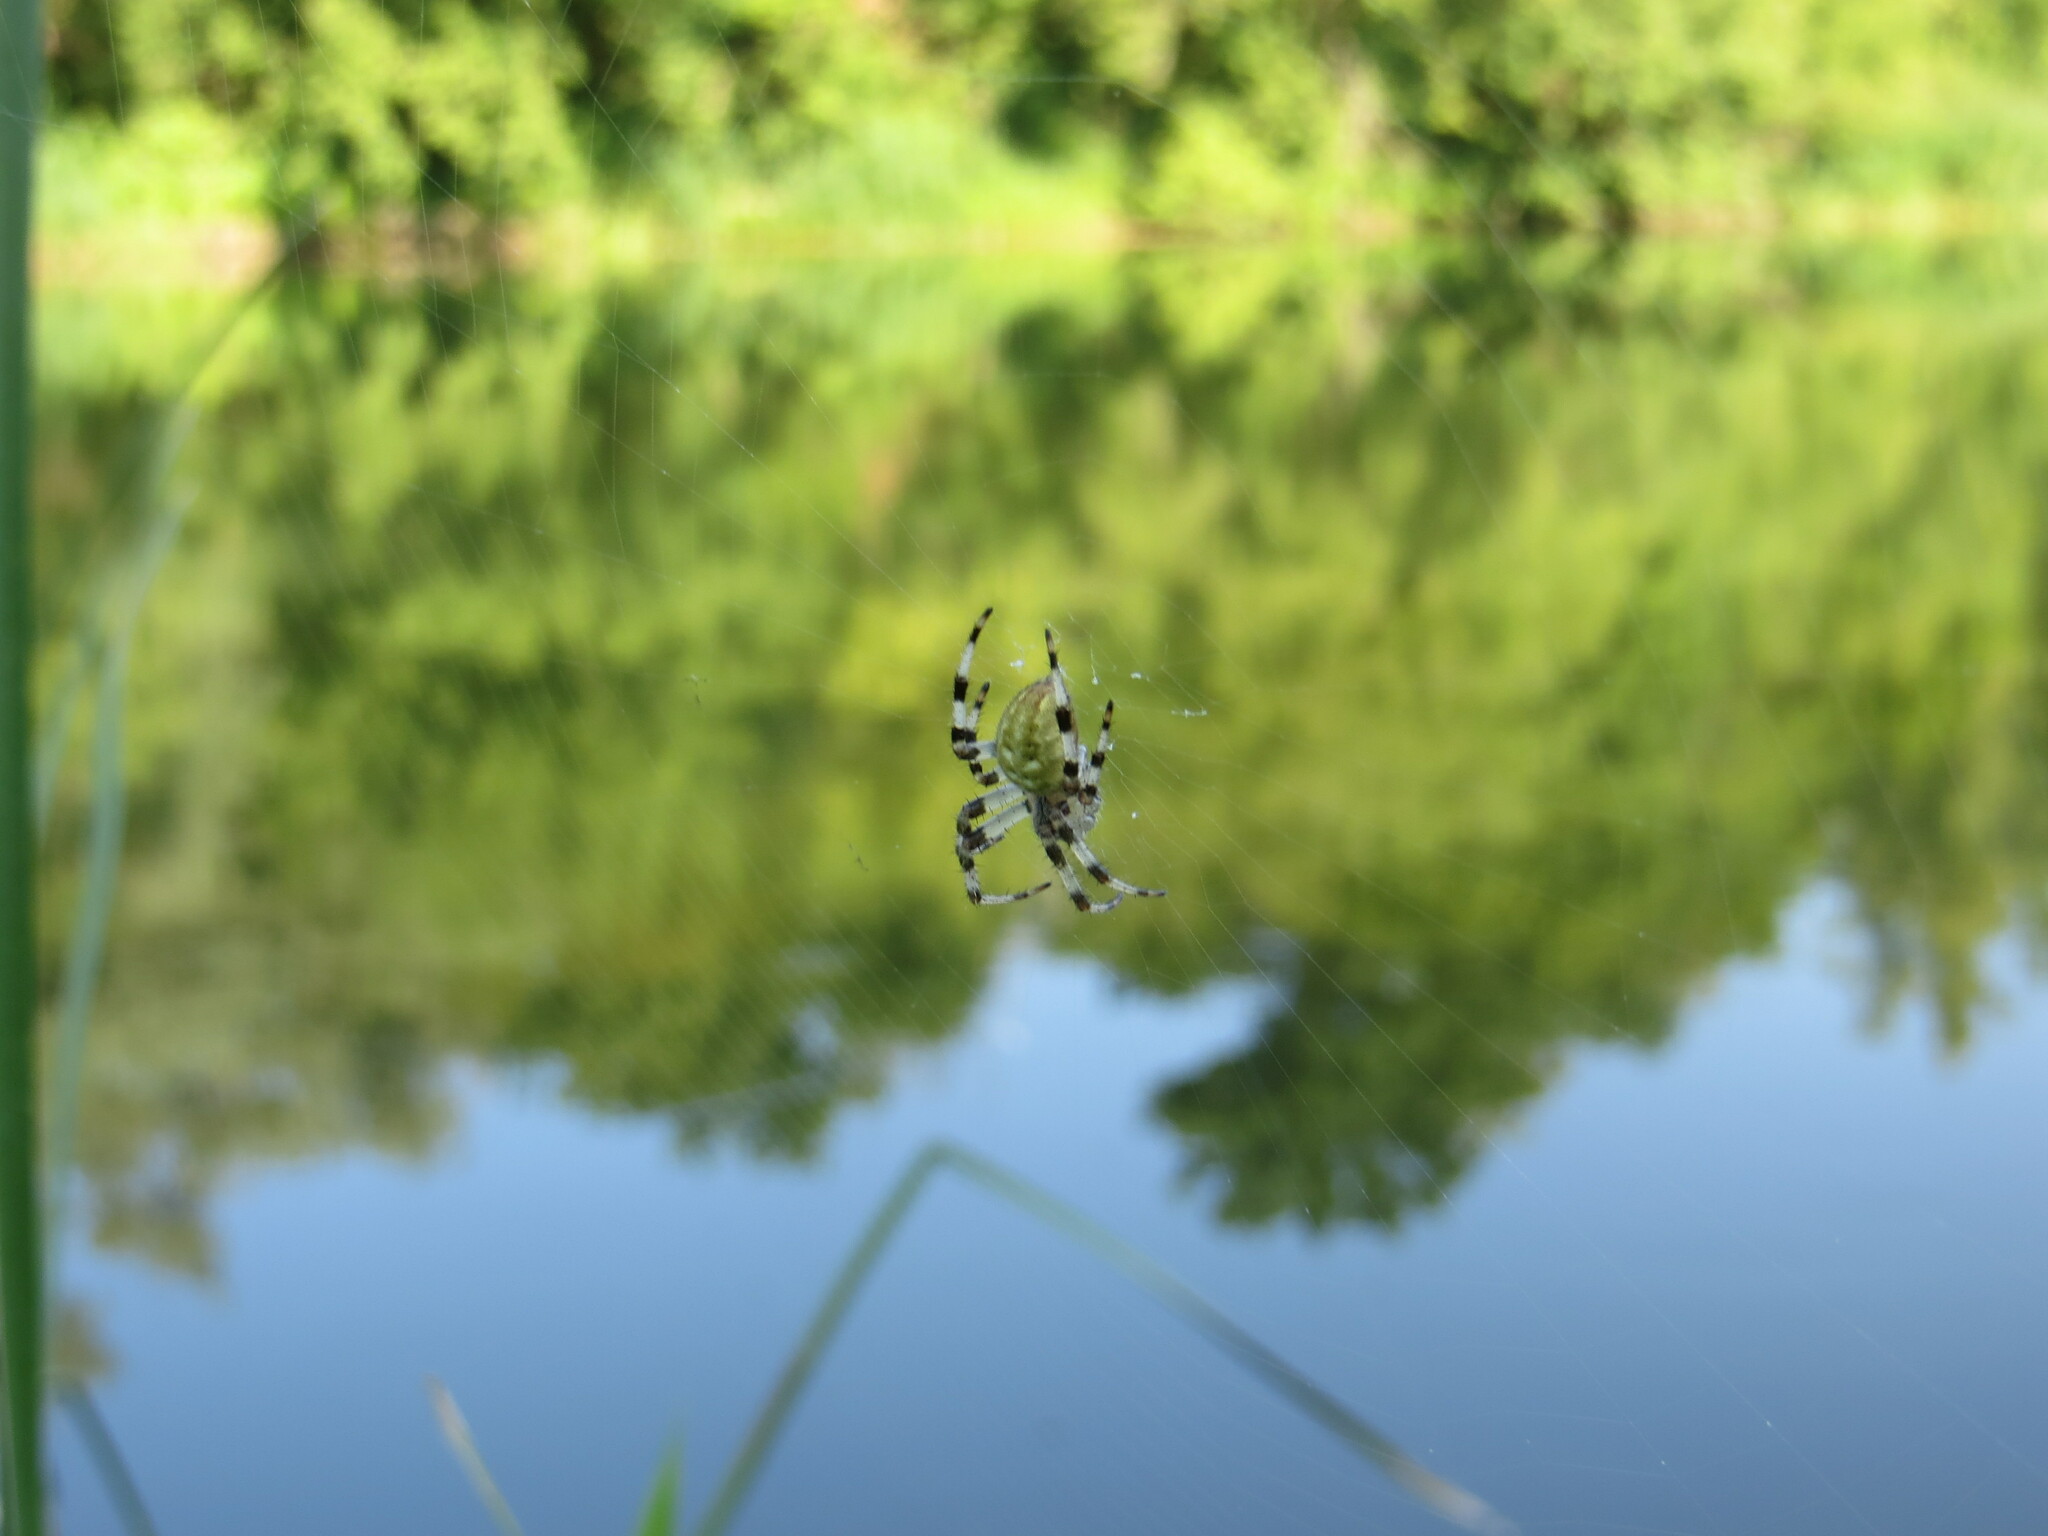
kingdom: Animalia
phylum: Arthropoda
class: Arachnida
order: Araneae
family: Araneidae
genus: Araneus
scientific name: Araneus quadratus
